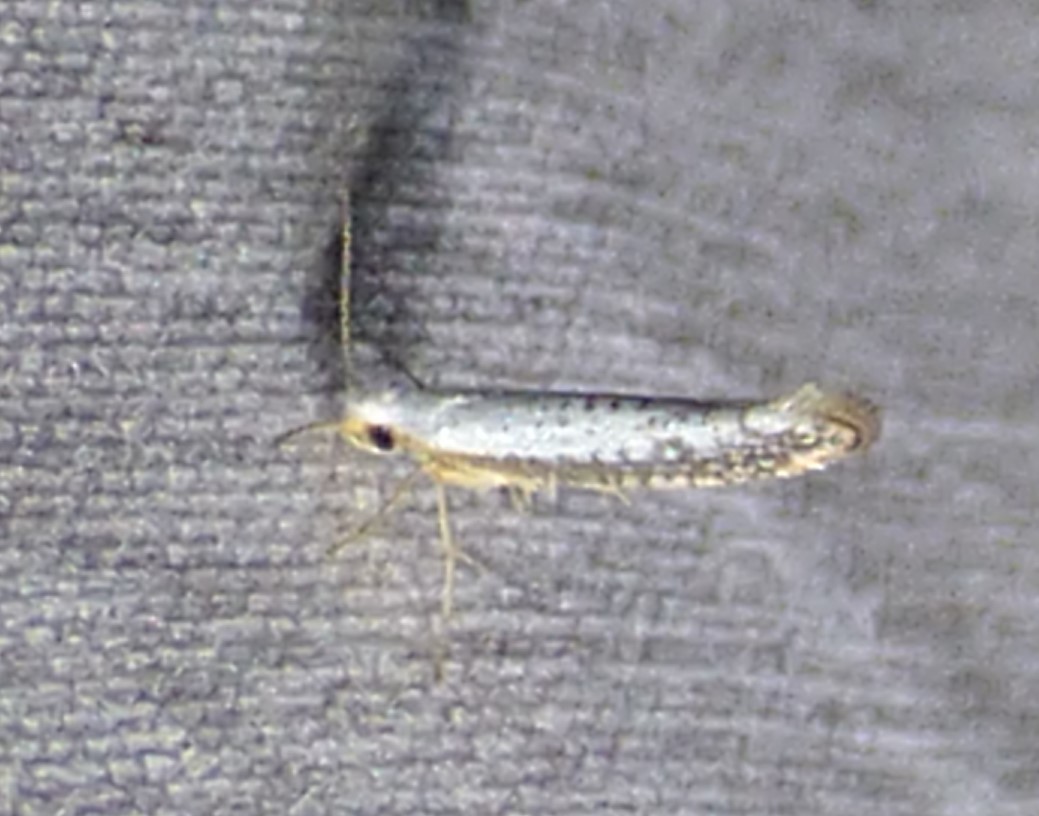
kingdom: Animalia
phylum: Arthropoda
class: Insecta
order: Lepidoptera
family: Argyresthiidae
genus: Argyresthia
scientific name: Argyresthia subreticulata
